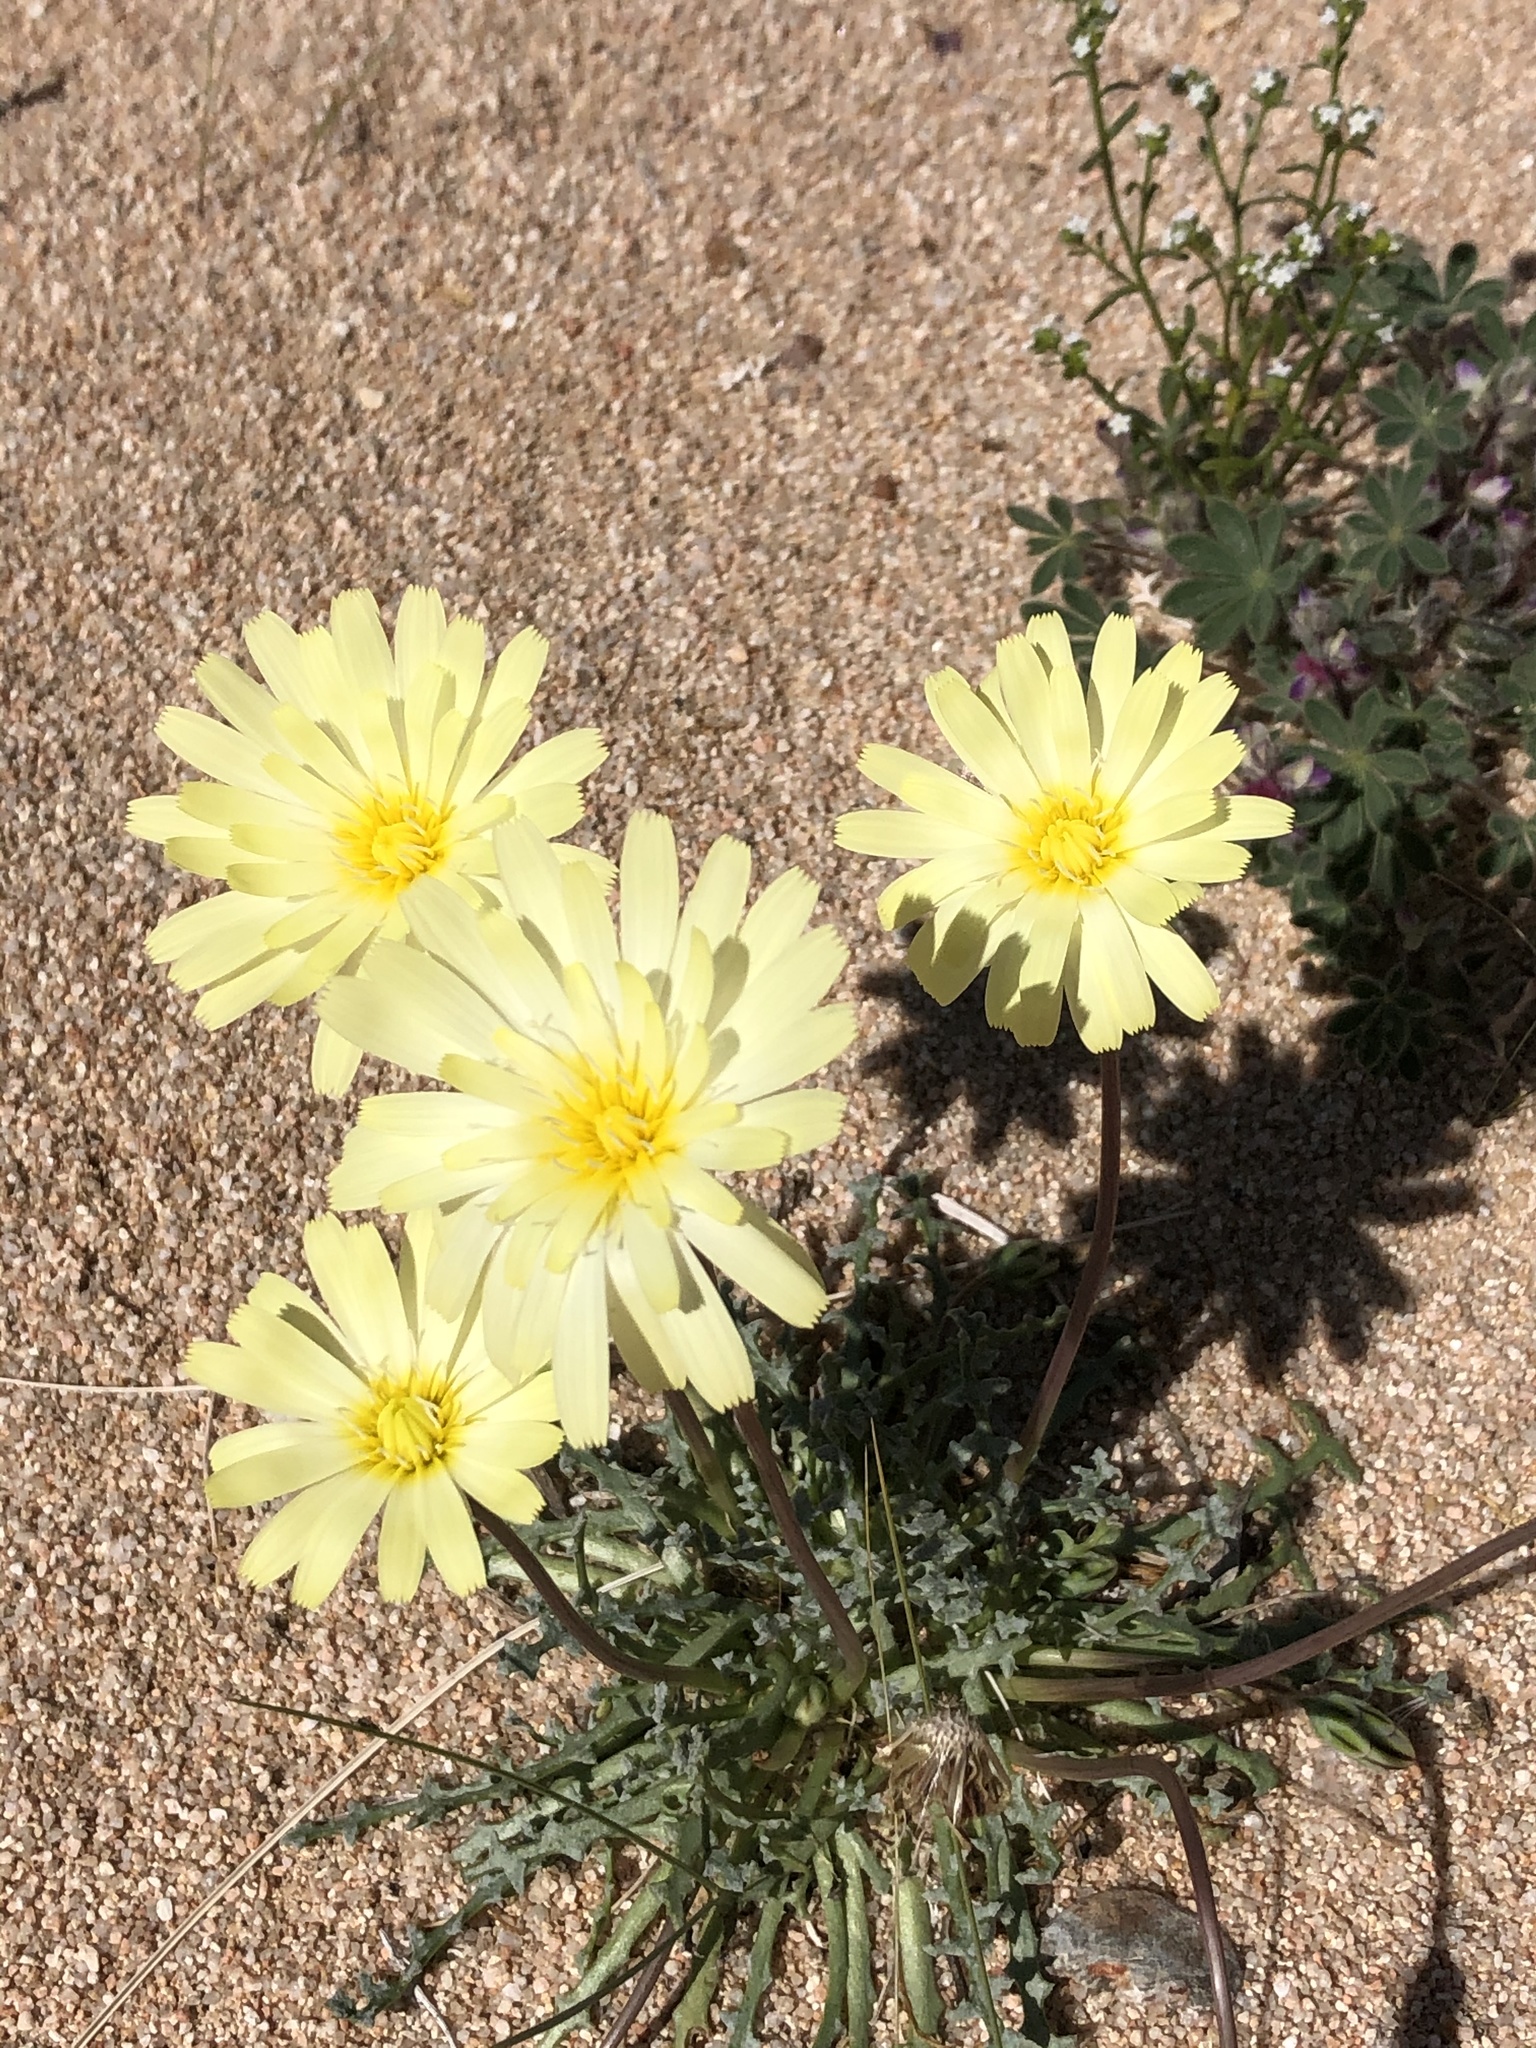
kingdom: Plantae
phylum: Tracheophyta
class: Magnoliopsida
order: Asterales
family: Asteraceae
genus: Anisocoma
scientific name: Anisocoma acaulis
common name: Scalebud
